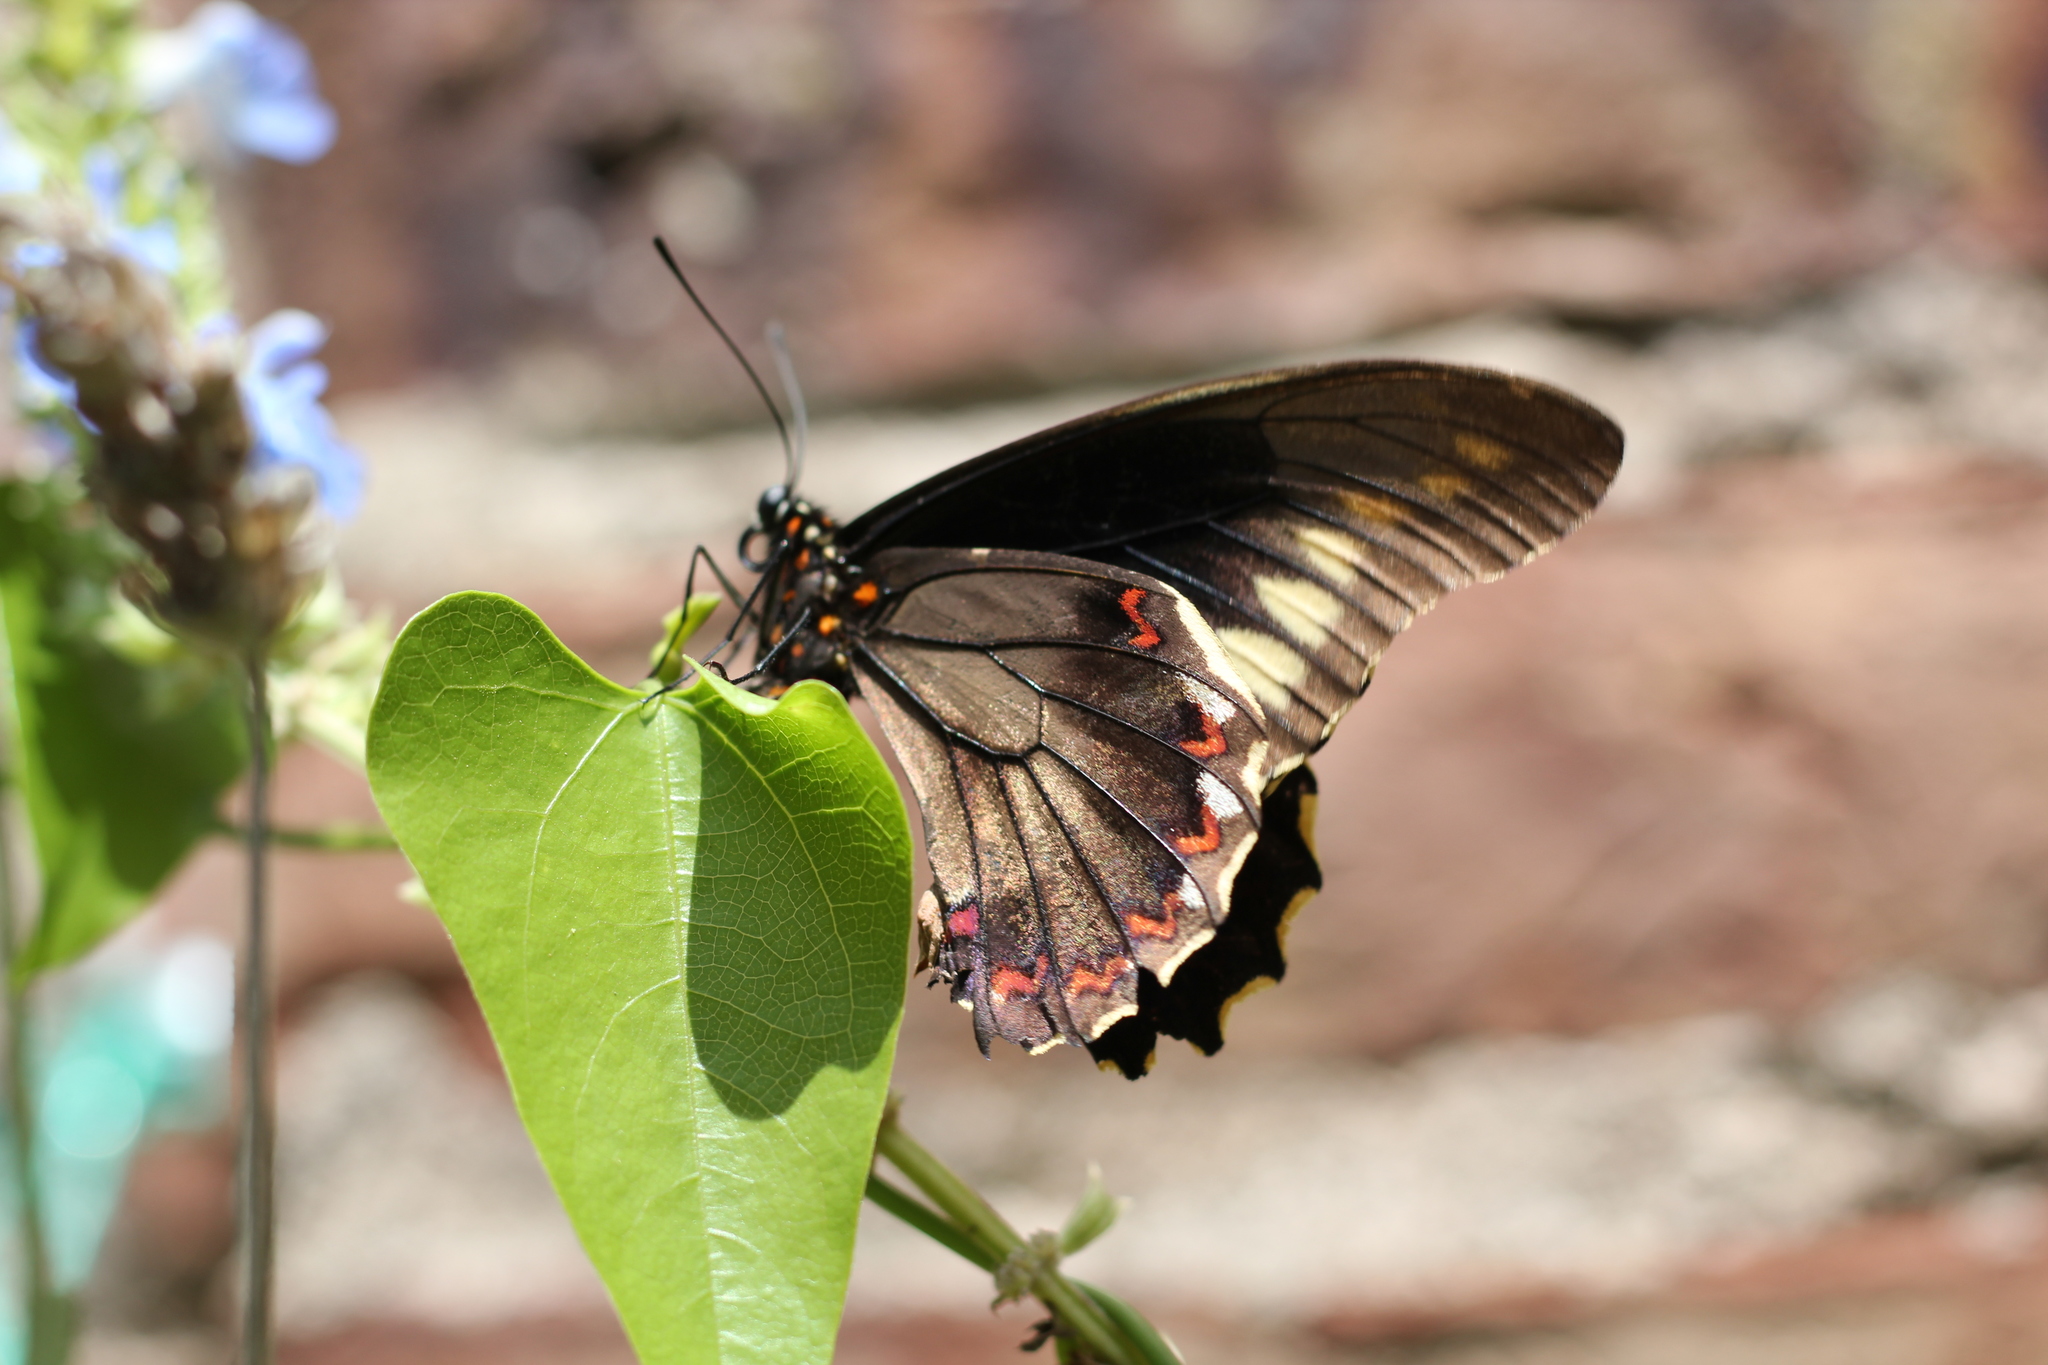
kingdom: Animalia
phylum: Arthropoda
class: Insecta
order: Lepidoptera
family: Papilionidae
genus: Battus
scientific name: Battus polydamas
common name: Polydamas swallowtail
